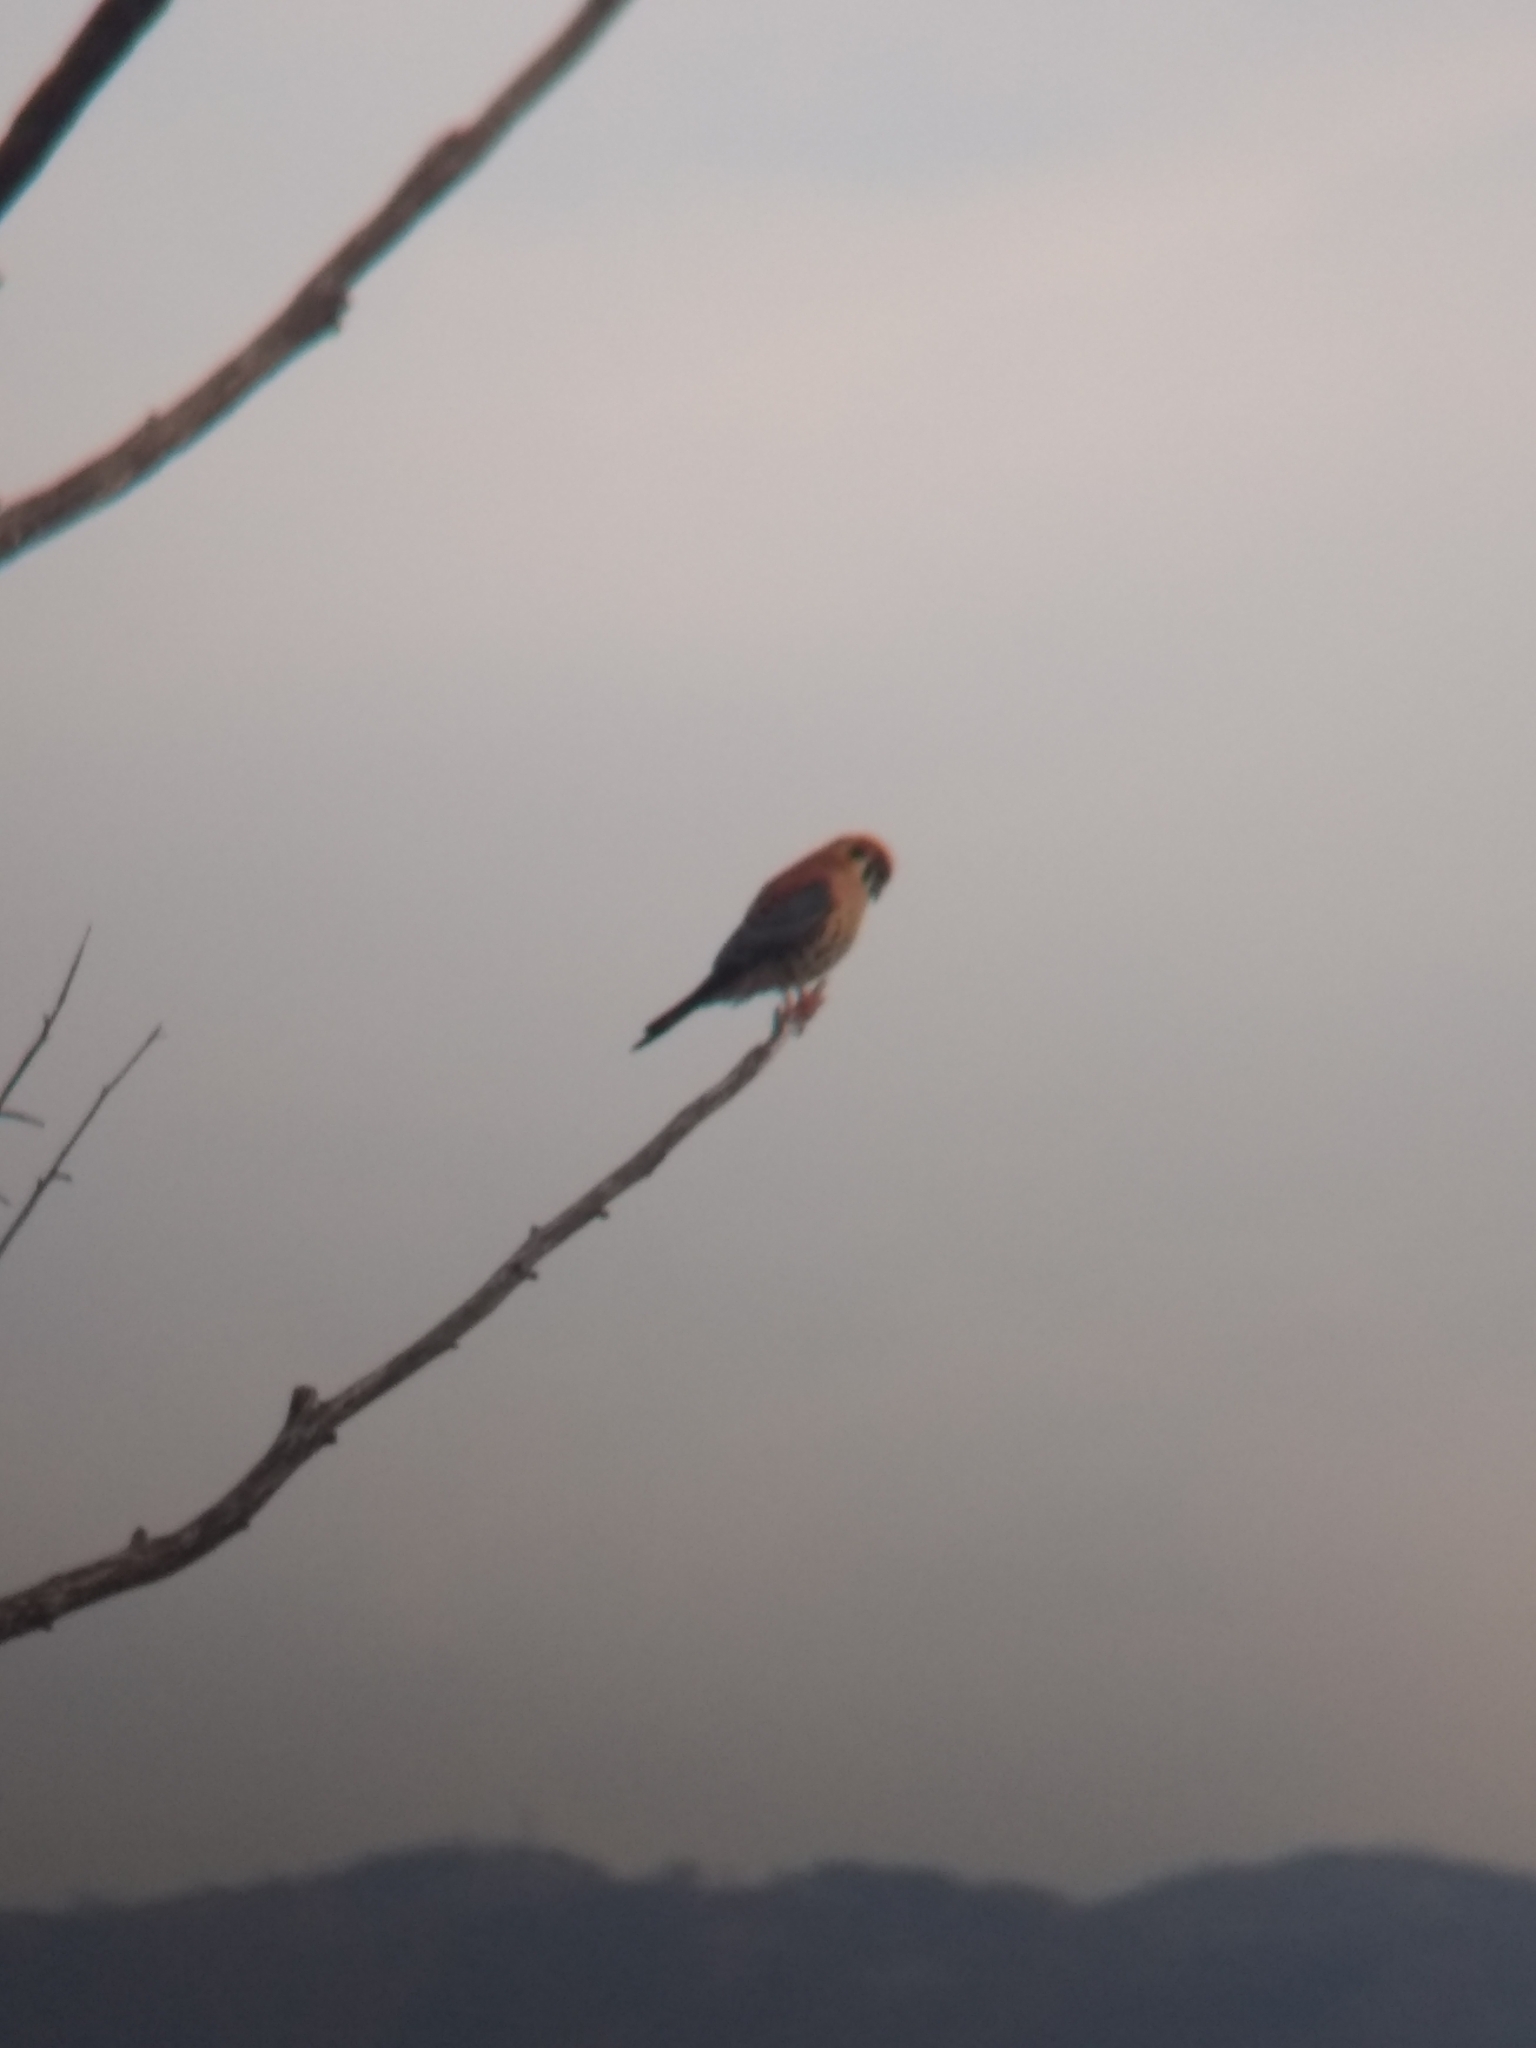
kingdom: Animalia
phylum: Chordata
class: Aves
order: Falconiformes
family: Falconidae
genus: Falco
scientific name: Falco sparverius
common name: American kestrel
